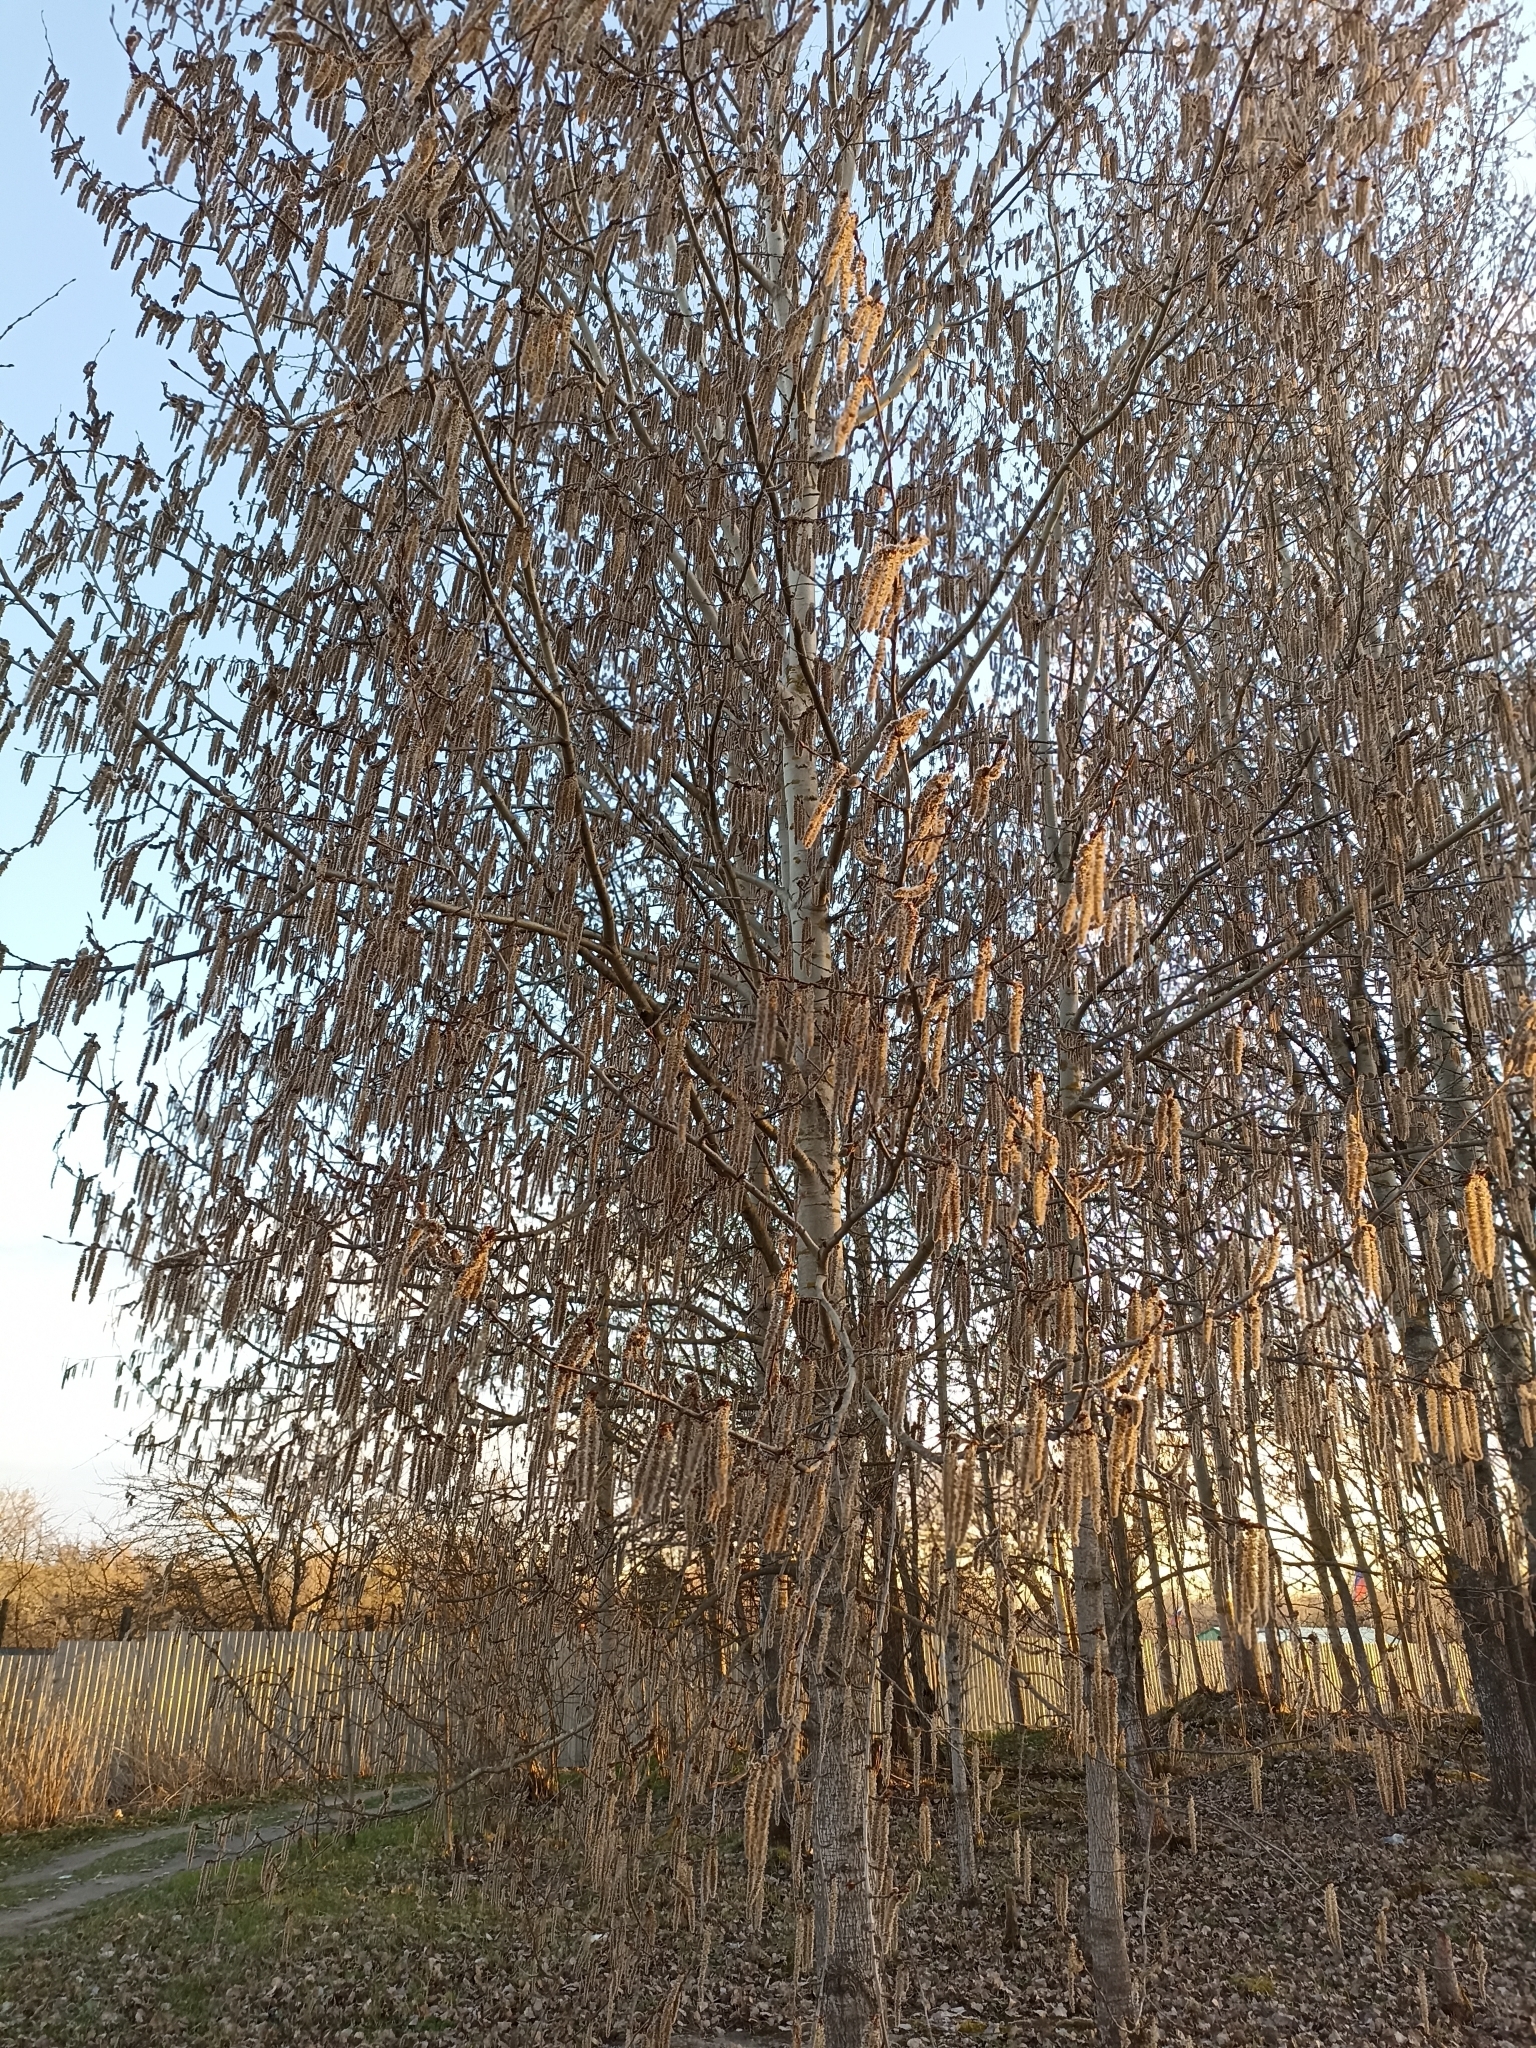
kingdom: Plantae
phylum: Tracheophyta
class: Magnoliopsida
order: Malpighiales
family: Salicaceae
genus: Populus
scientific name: Populus tremula
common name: European aspen
